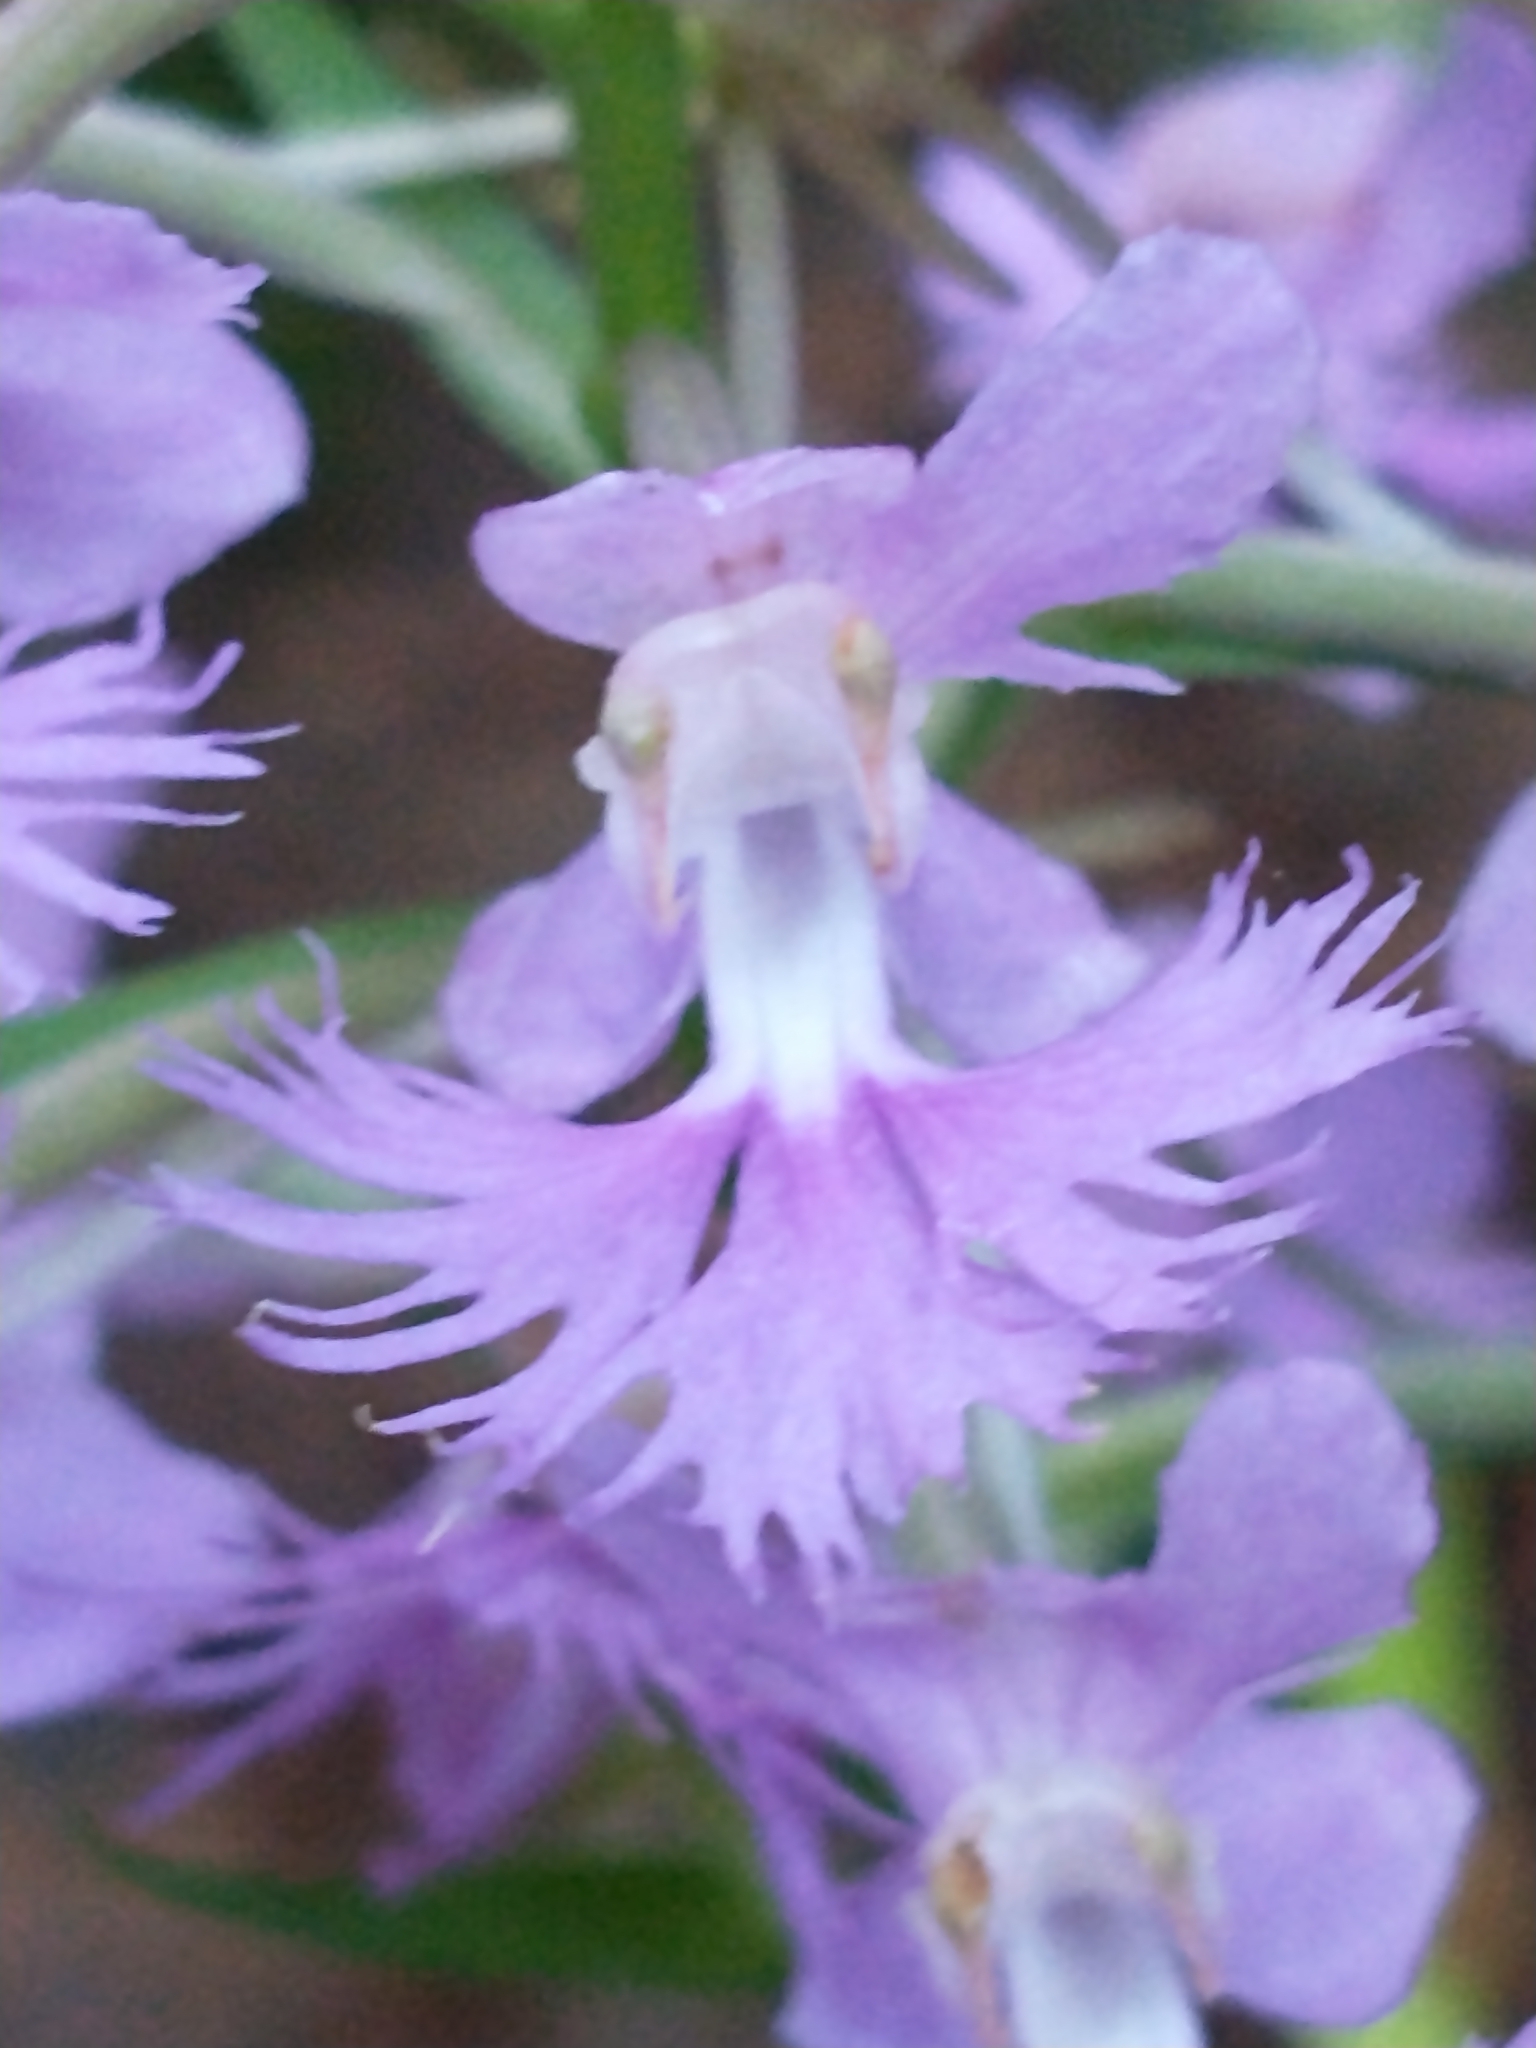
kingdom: Plantae
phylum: Tracheophyta
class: Liliopsida
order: Asparagales
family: Orchidaceae
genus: Platanthera
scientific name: Platanthera grandiflora
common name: Greater purple fringed orchid
